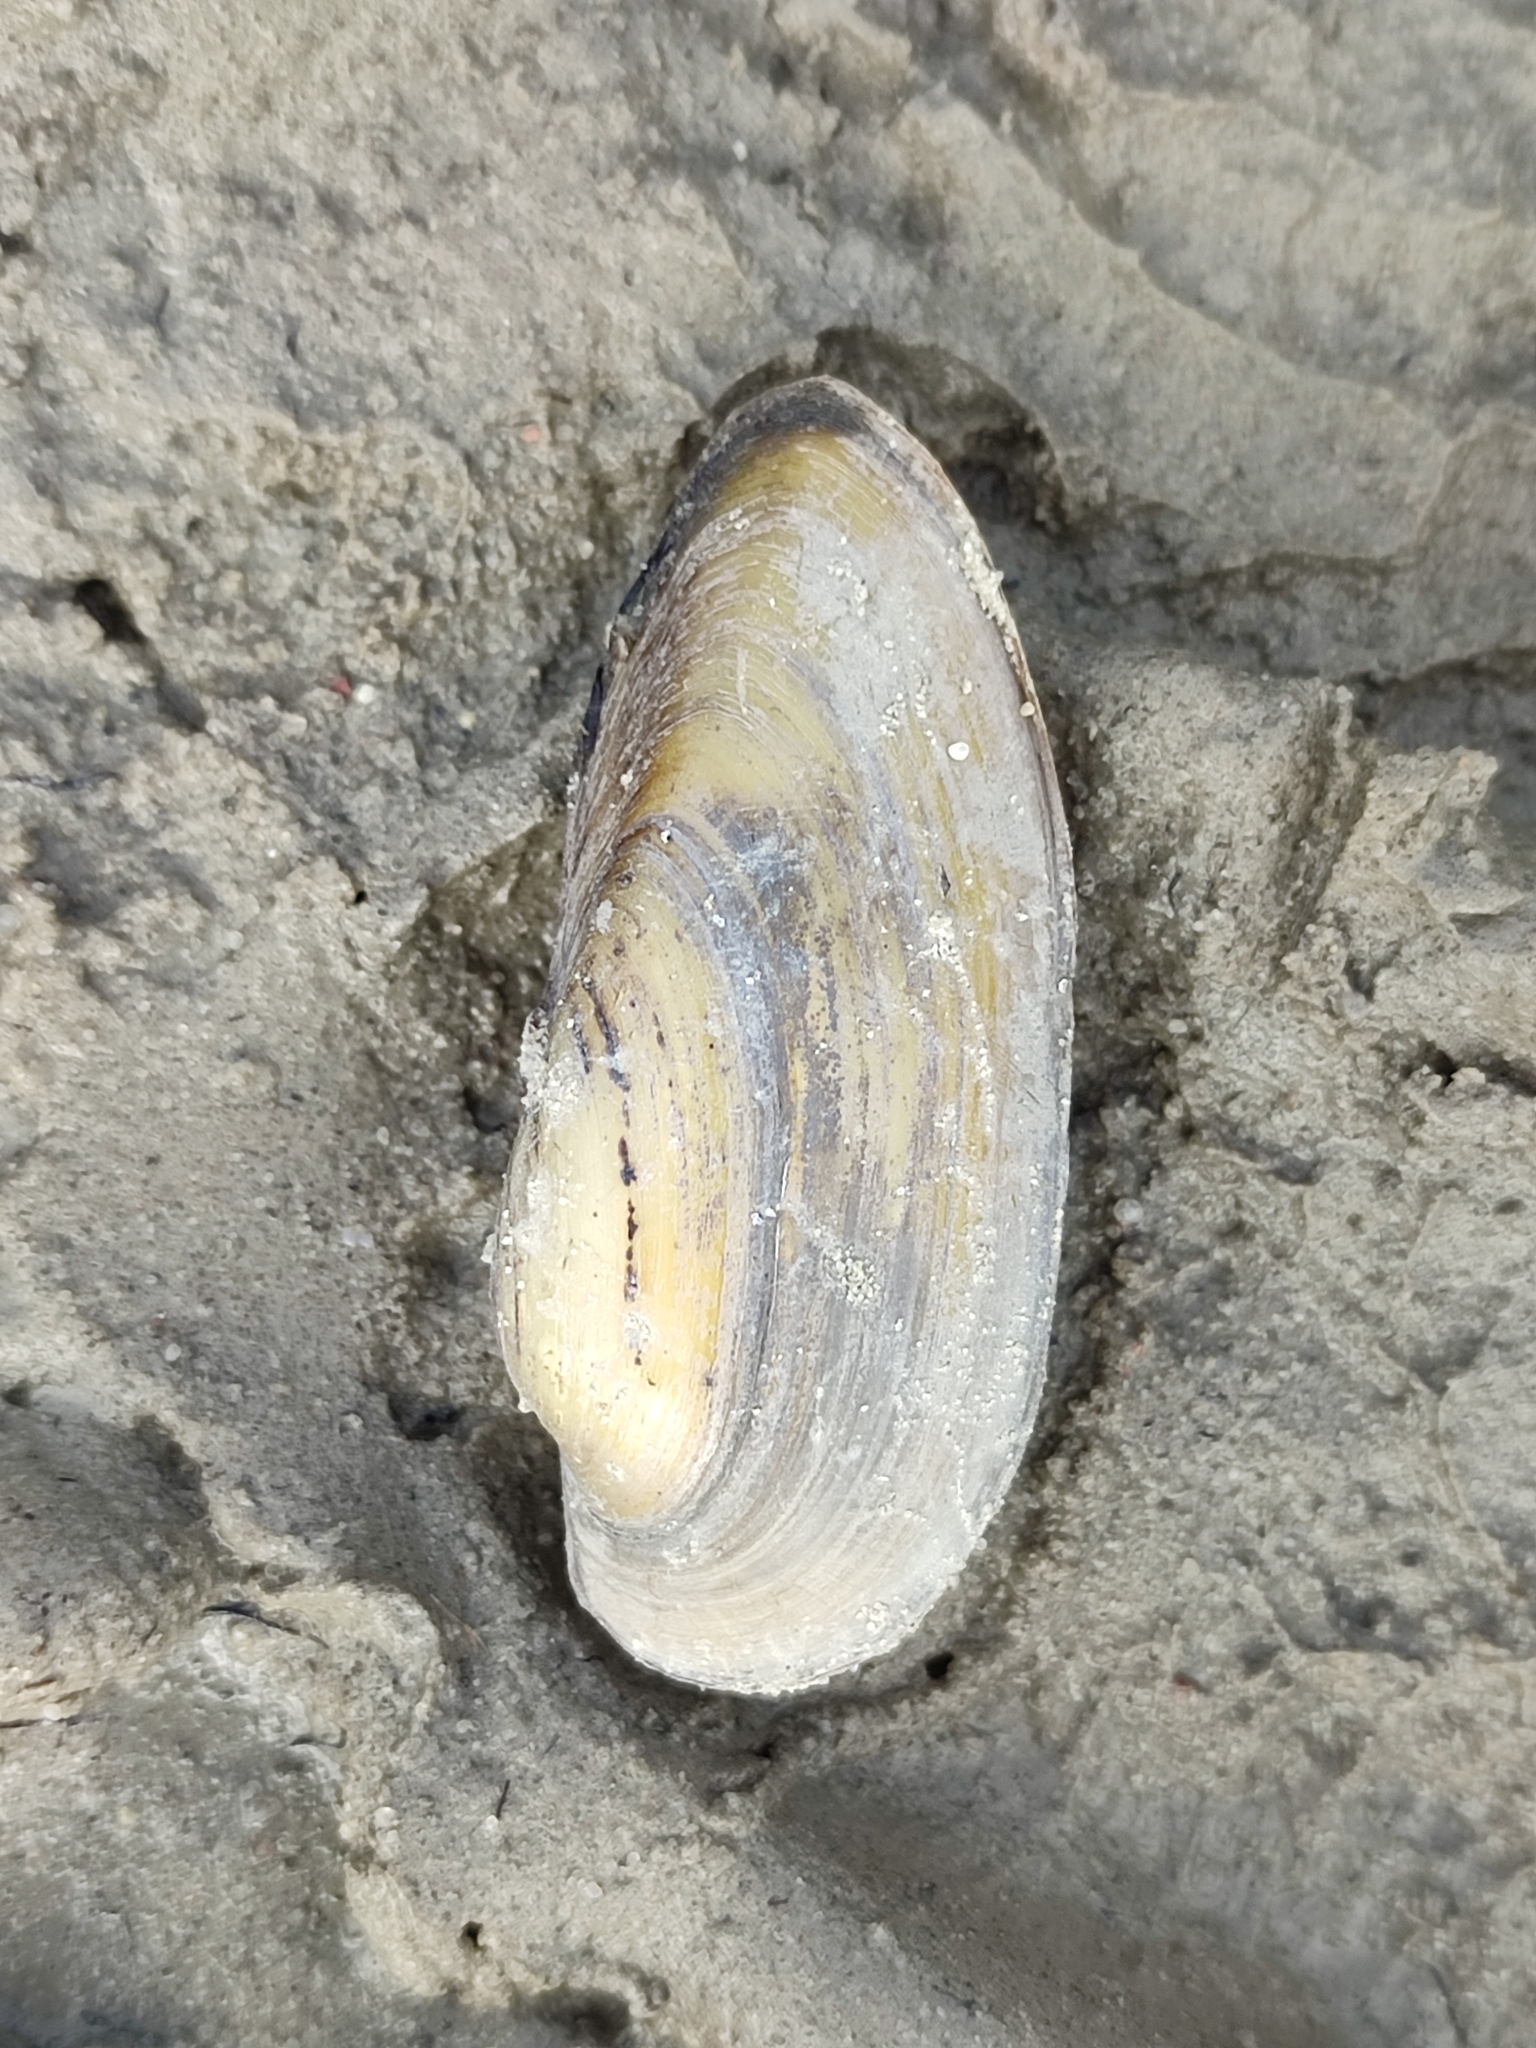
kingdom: Animalia
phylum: Mollusca
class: Bivalvia
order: Unionida
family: Unionidae
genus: Unio
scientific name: Unio pictorum
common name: Painter's mussel
